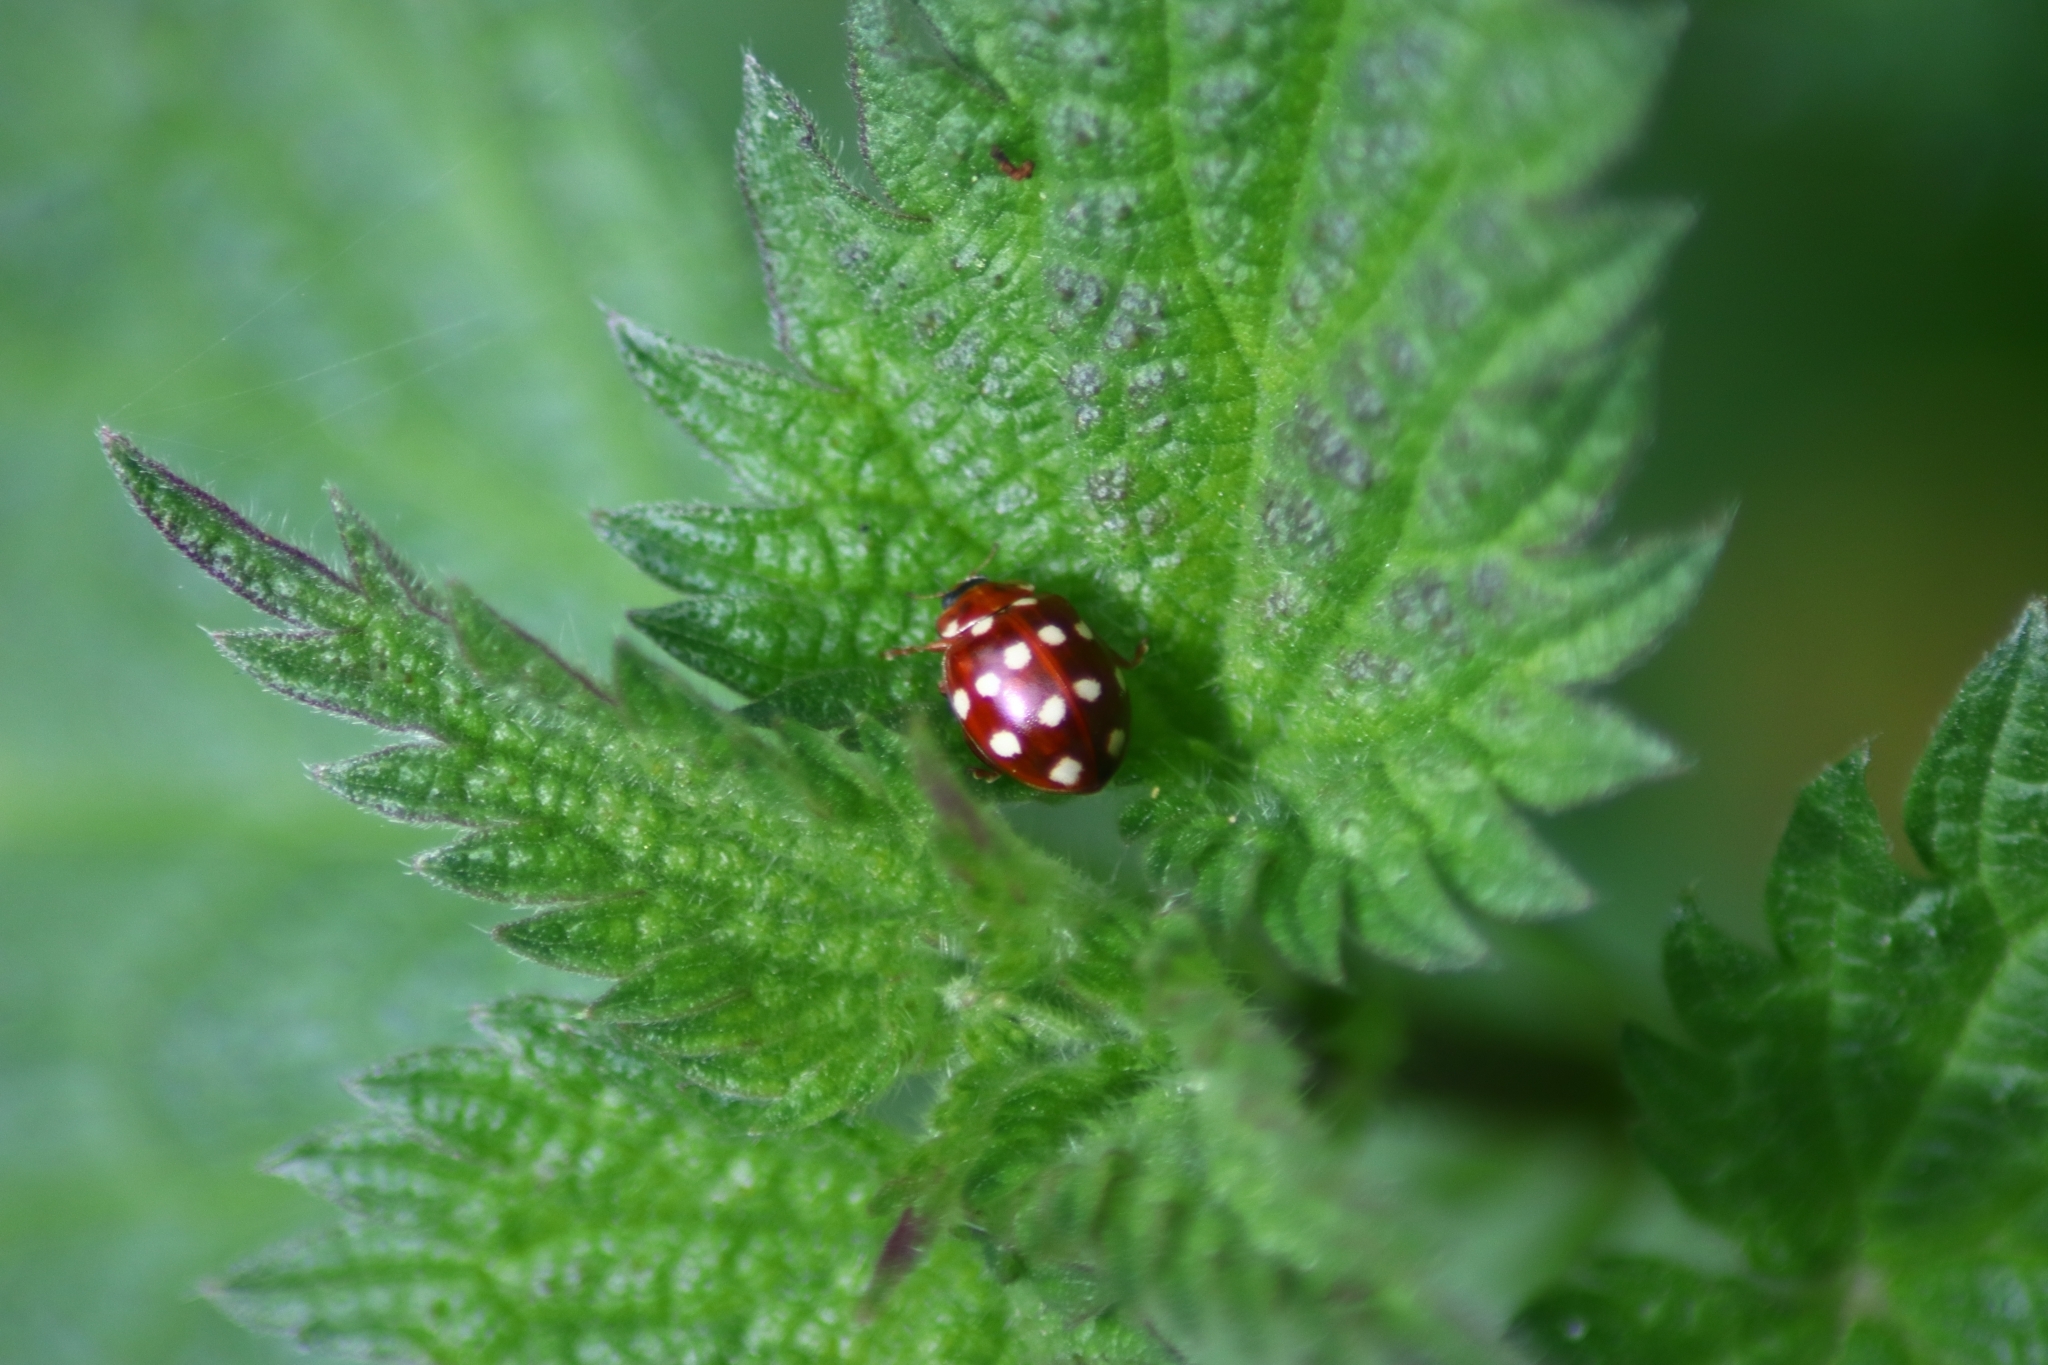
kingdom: Animalia
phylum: Arthropoda
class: Insecta
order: Coleoptera
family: Coccinellidae
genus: Calvia
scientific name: Calvia quatuordecimguttata
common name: Cream-spot ladybird
